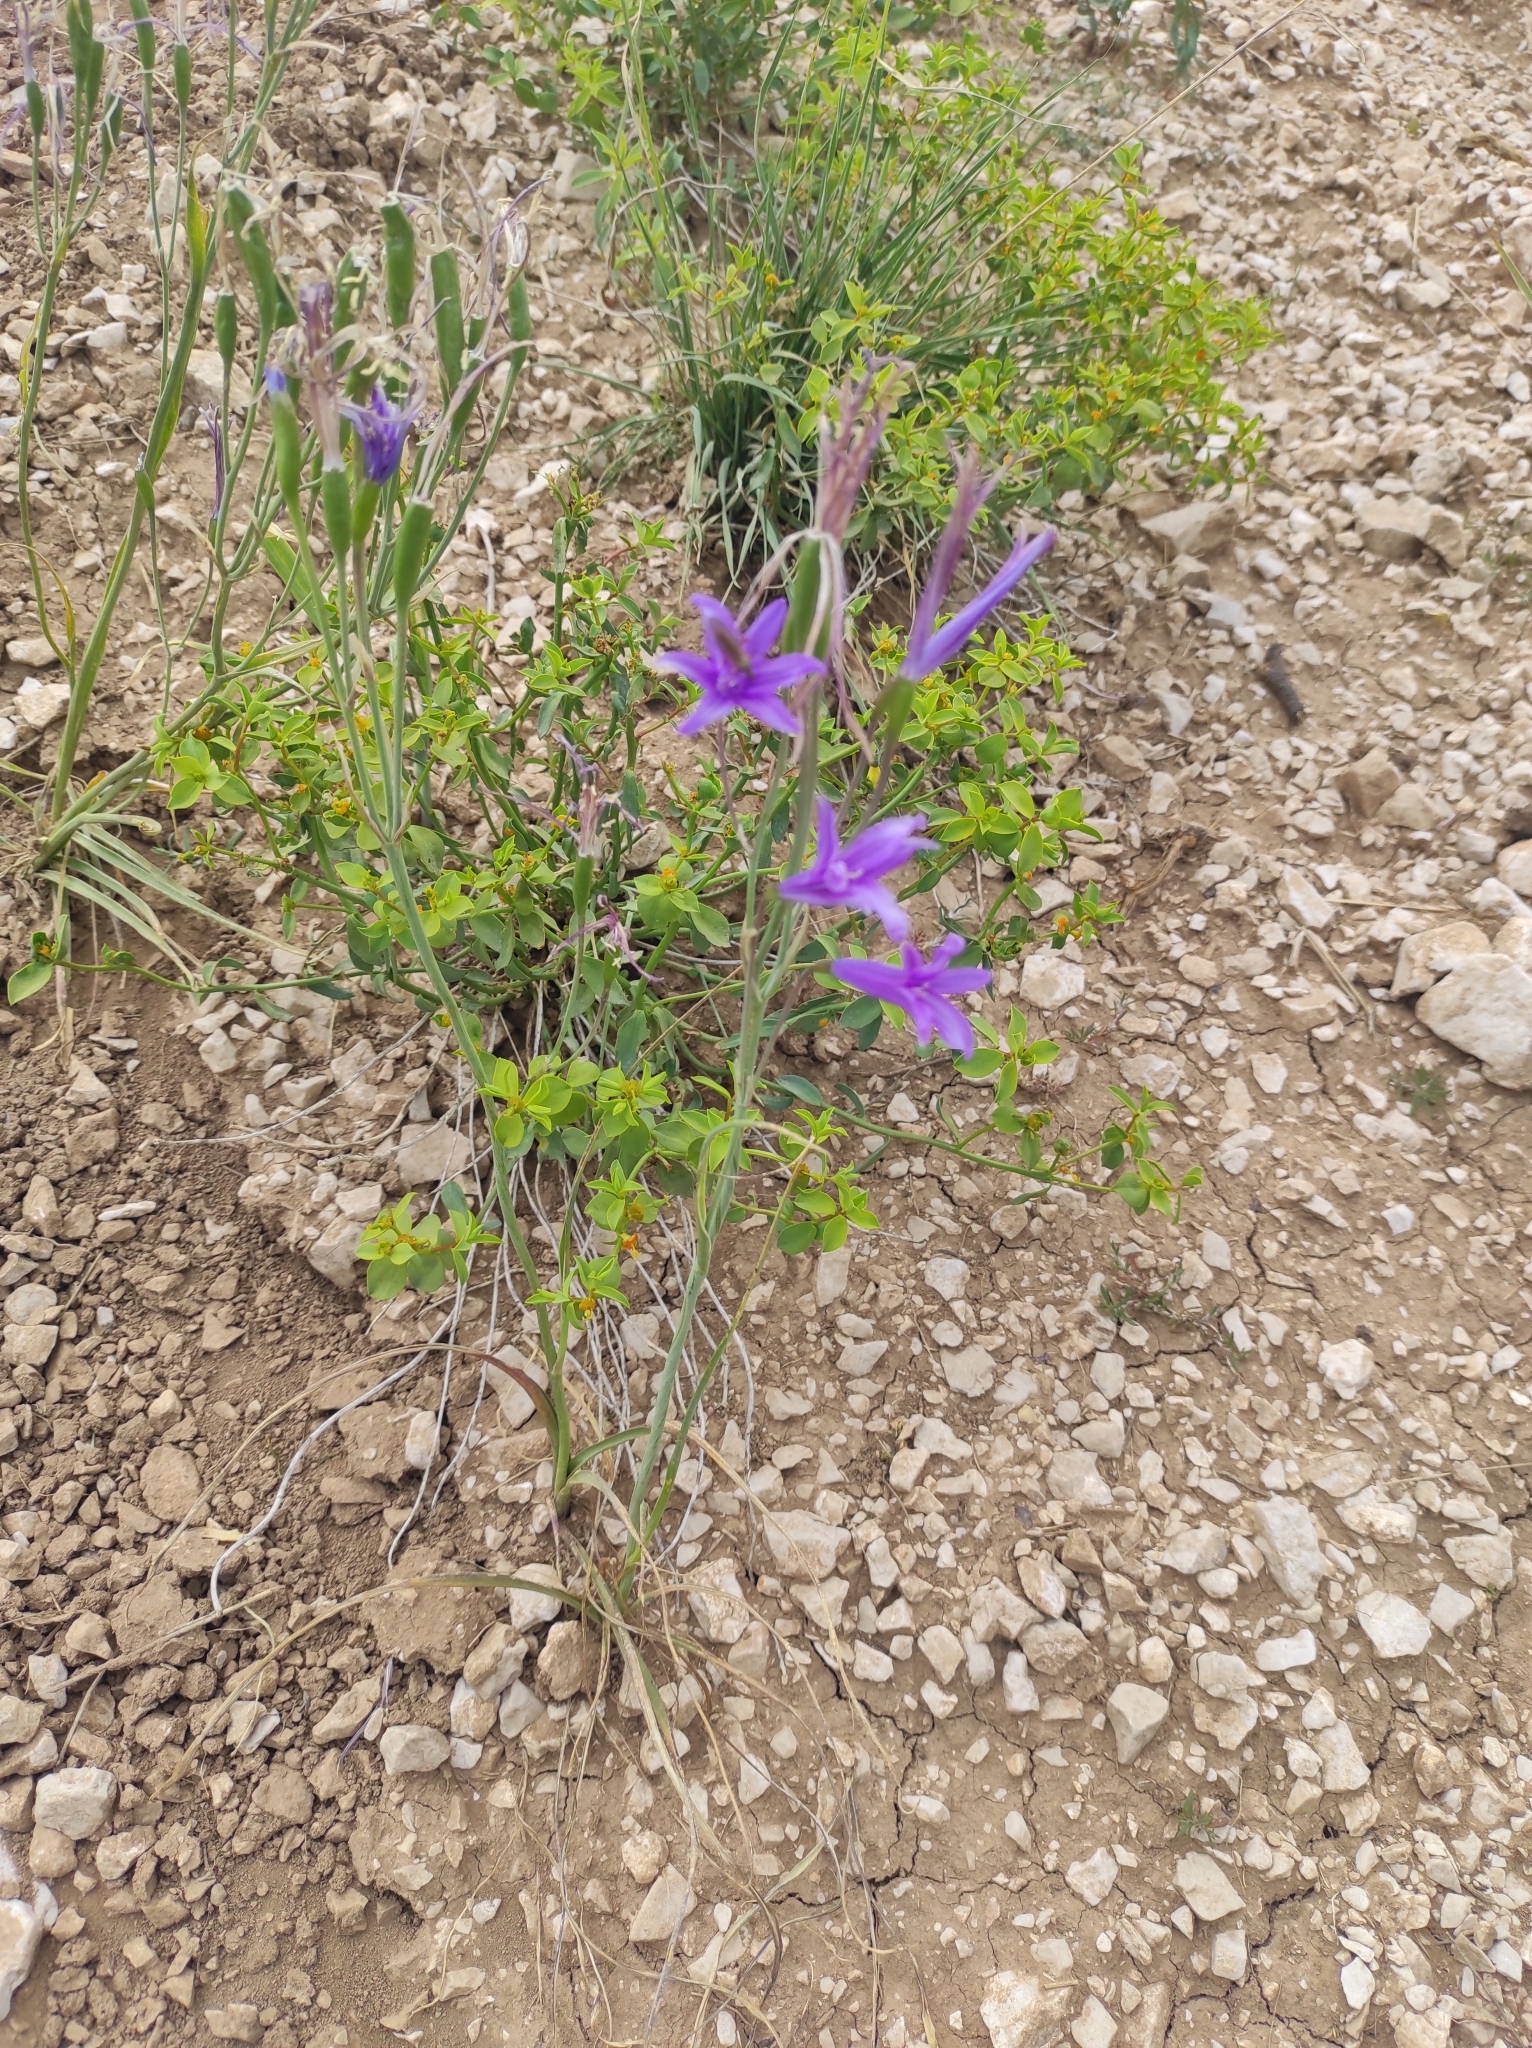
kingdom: Plantae
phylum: Tracheophyta
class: Liliopsida
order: Asparagales
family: Ixioliriaceae
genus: Ixiolirion
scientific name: Ixiolirion tataricum
